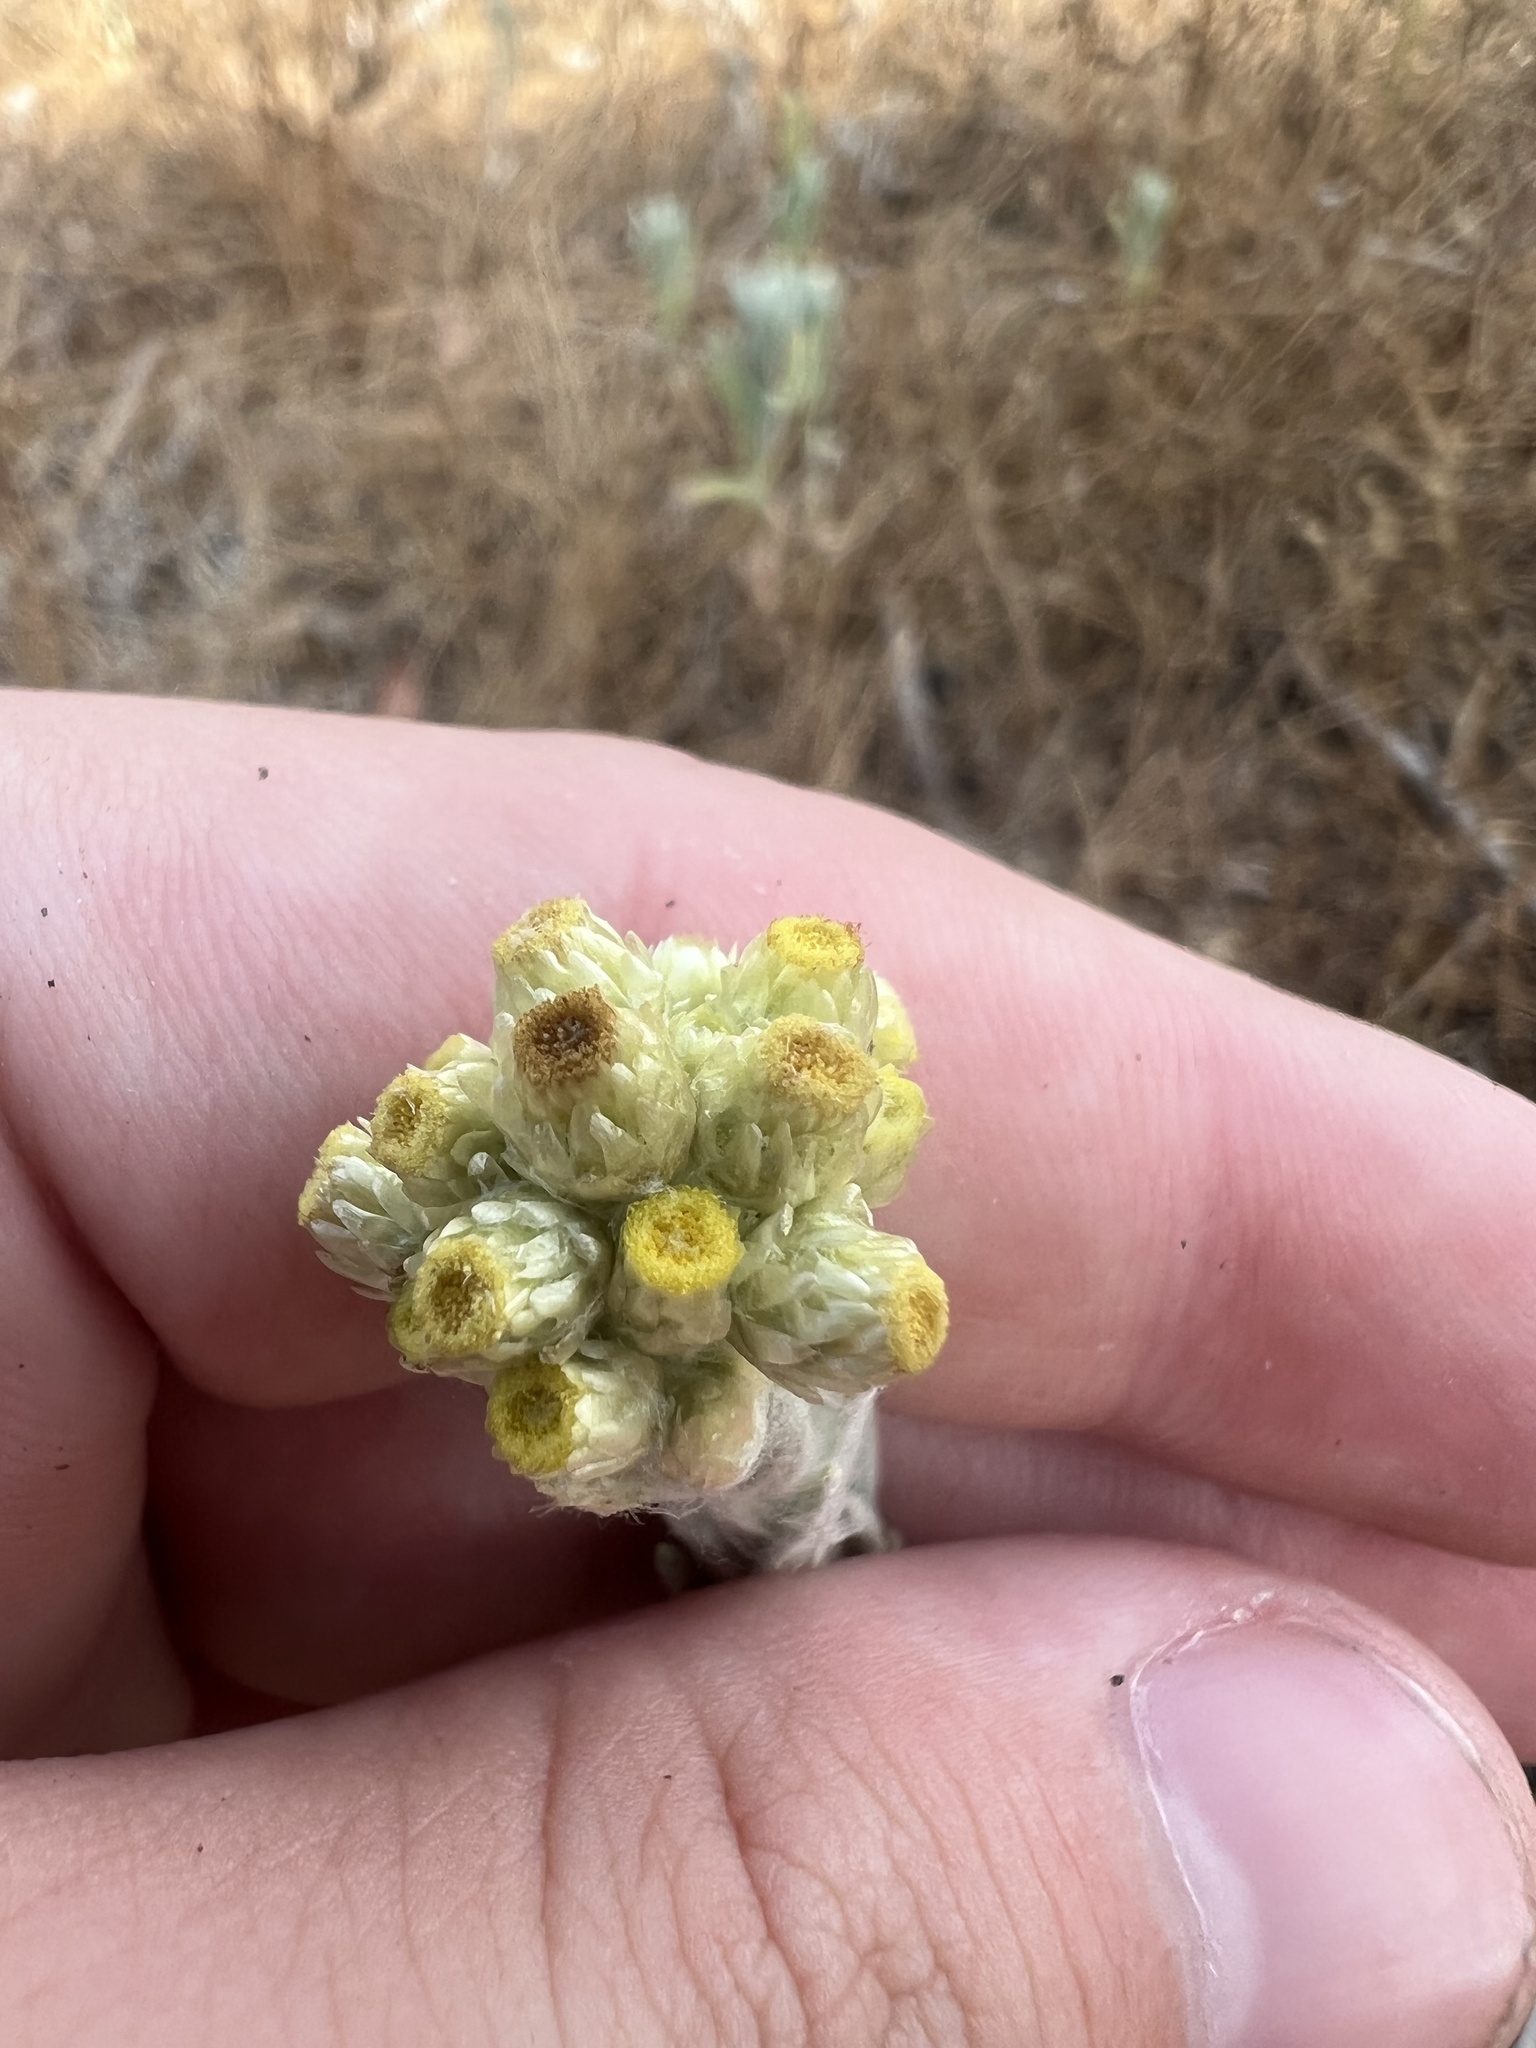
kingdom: Plantae
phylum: Tracheophyta
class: Magnoliopsida
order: Asterales
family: Asteraceae
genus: Pseudognaphalium
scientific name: Pseudognaphalium stramineum
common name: Cotton-batting-plant
